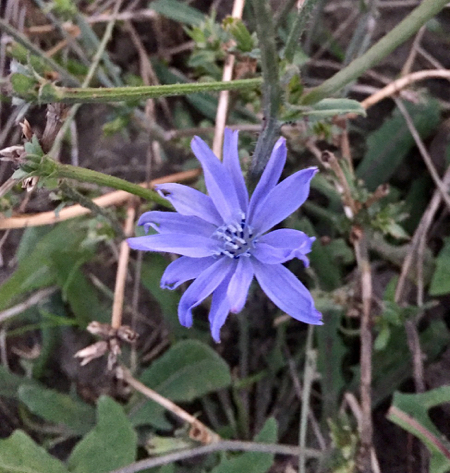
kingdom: Plantae
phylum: Tracheophyta
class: Magnoliopsida
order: Asterales
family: Asteraceae
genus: Cichorium
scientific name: Cichorium intybus
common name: Chicory
